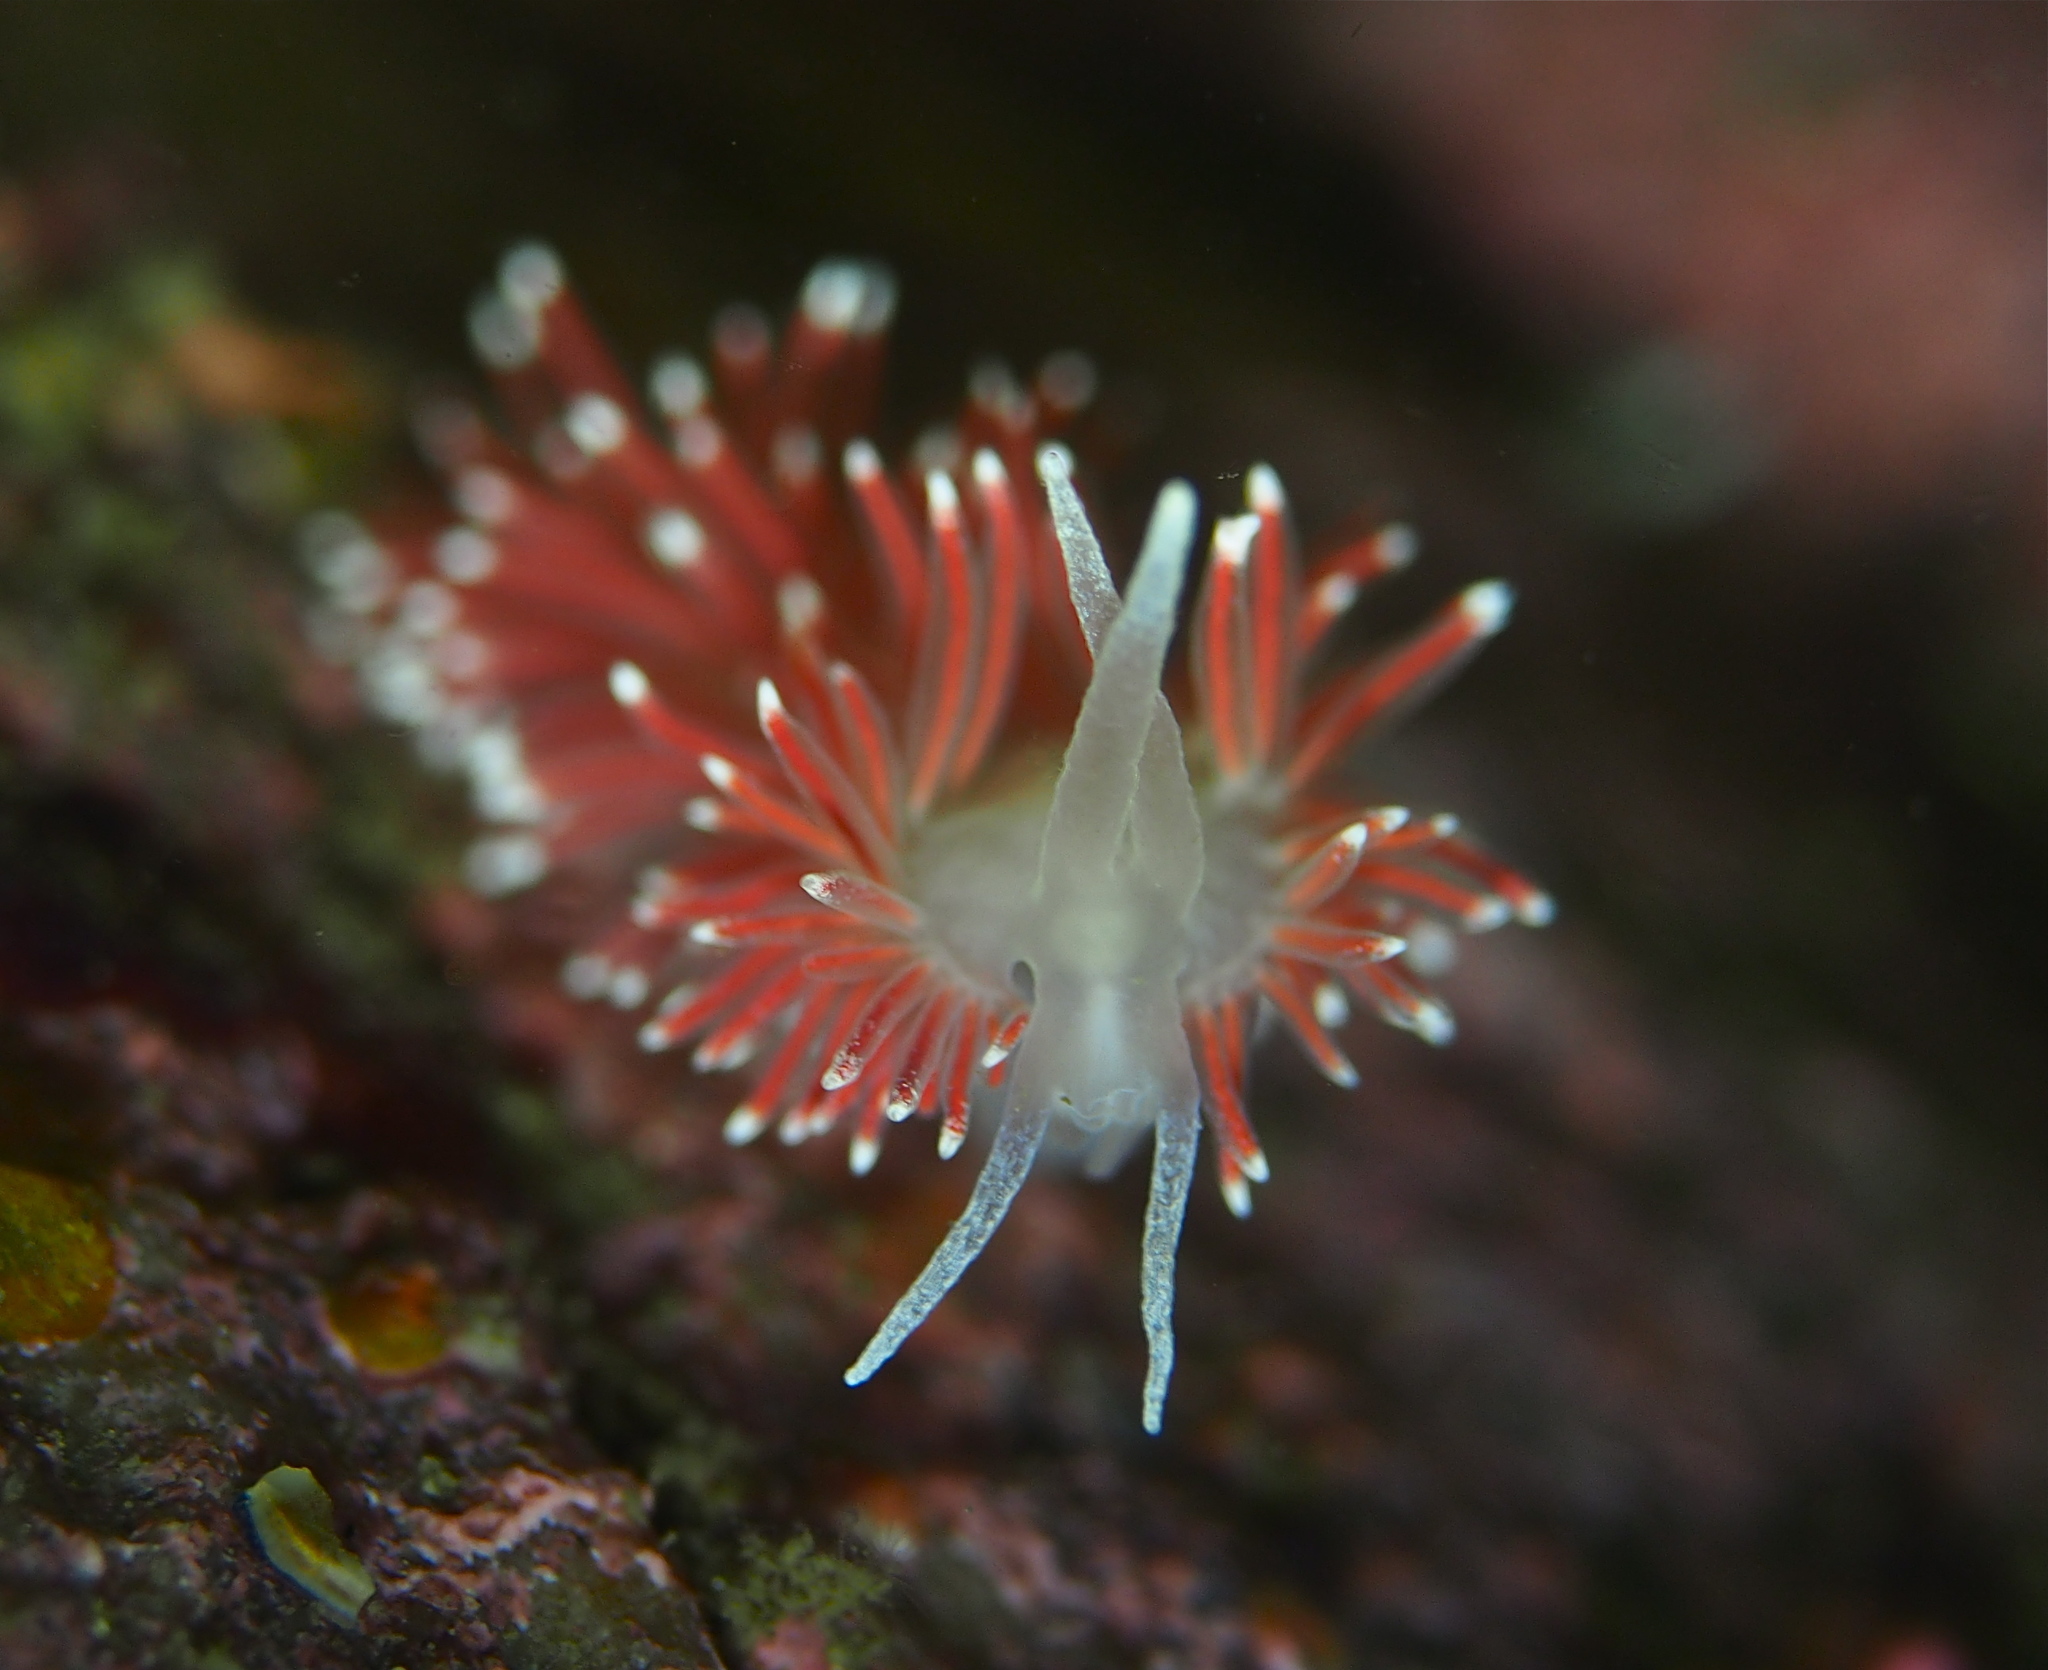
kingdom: Animalia
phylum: Mollusca
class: Gastropoda
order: Nudibranchia
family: Flabellinidae
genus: Carronella
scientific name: Carronella pellucida
